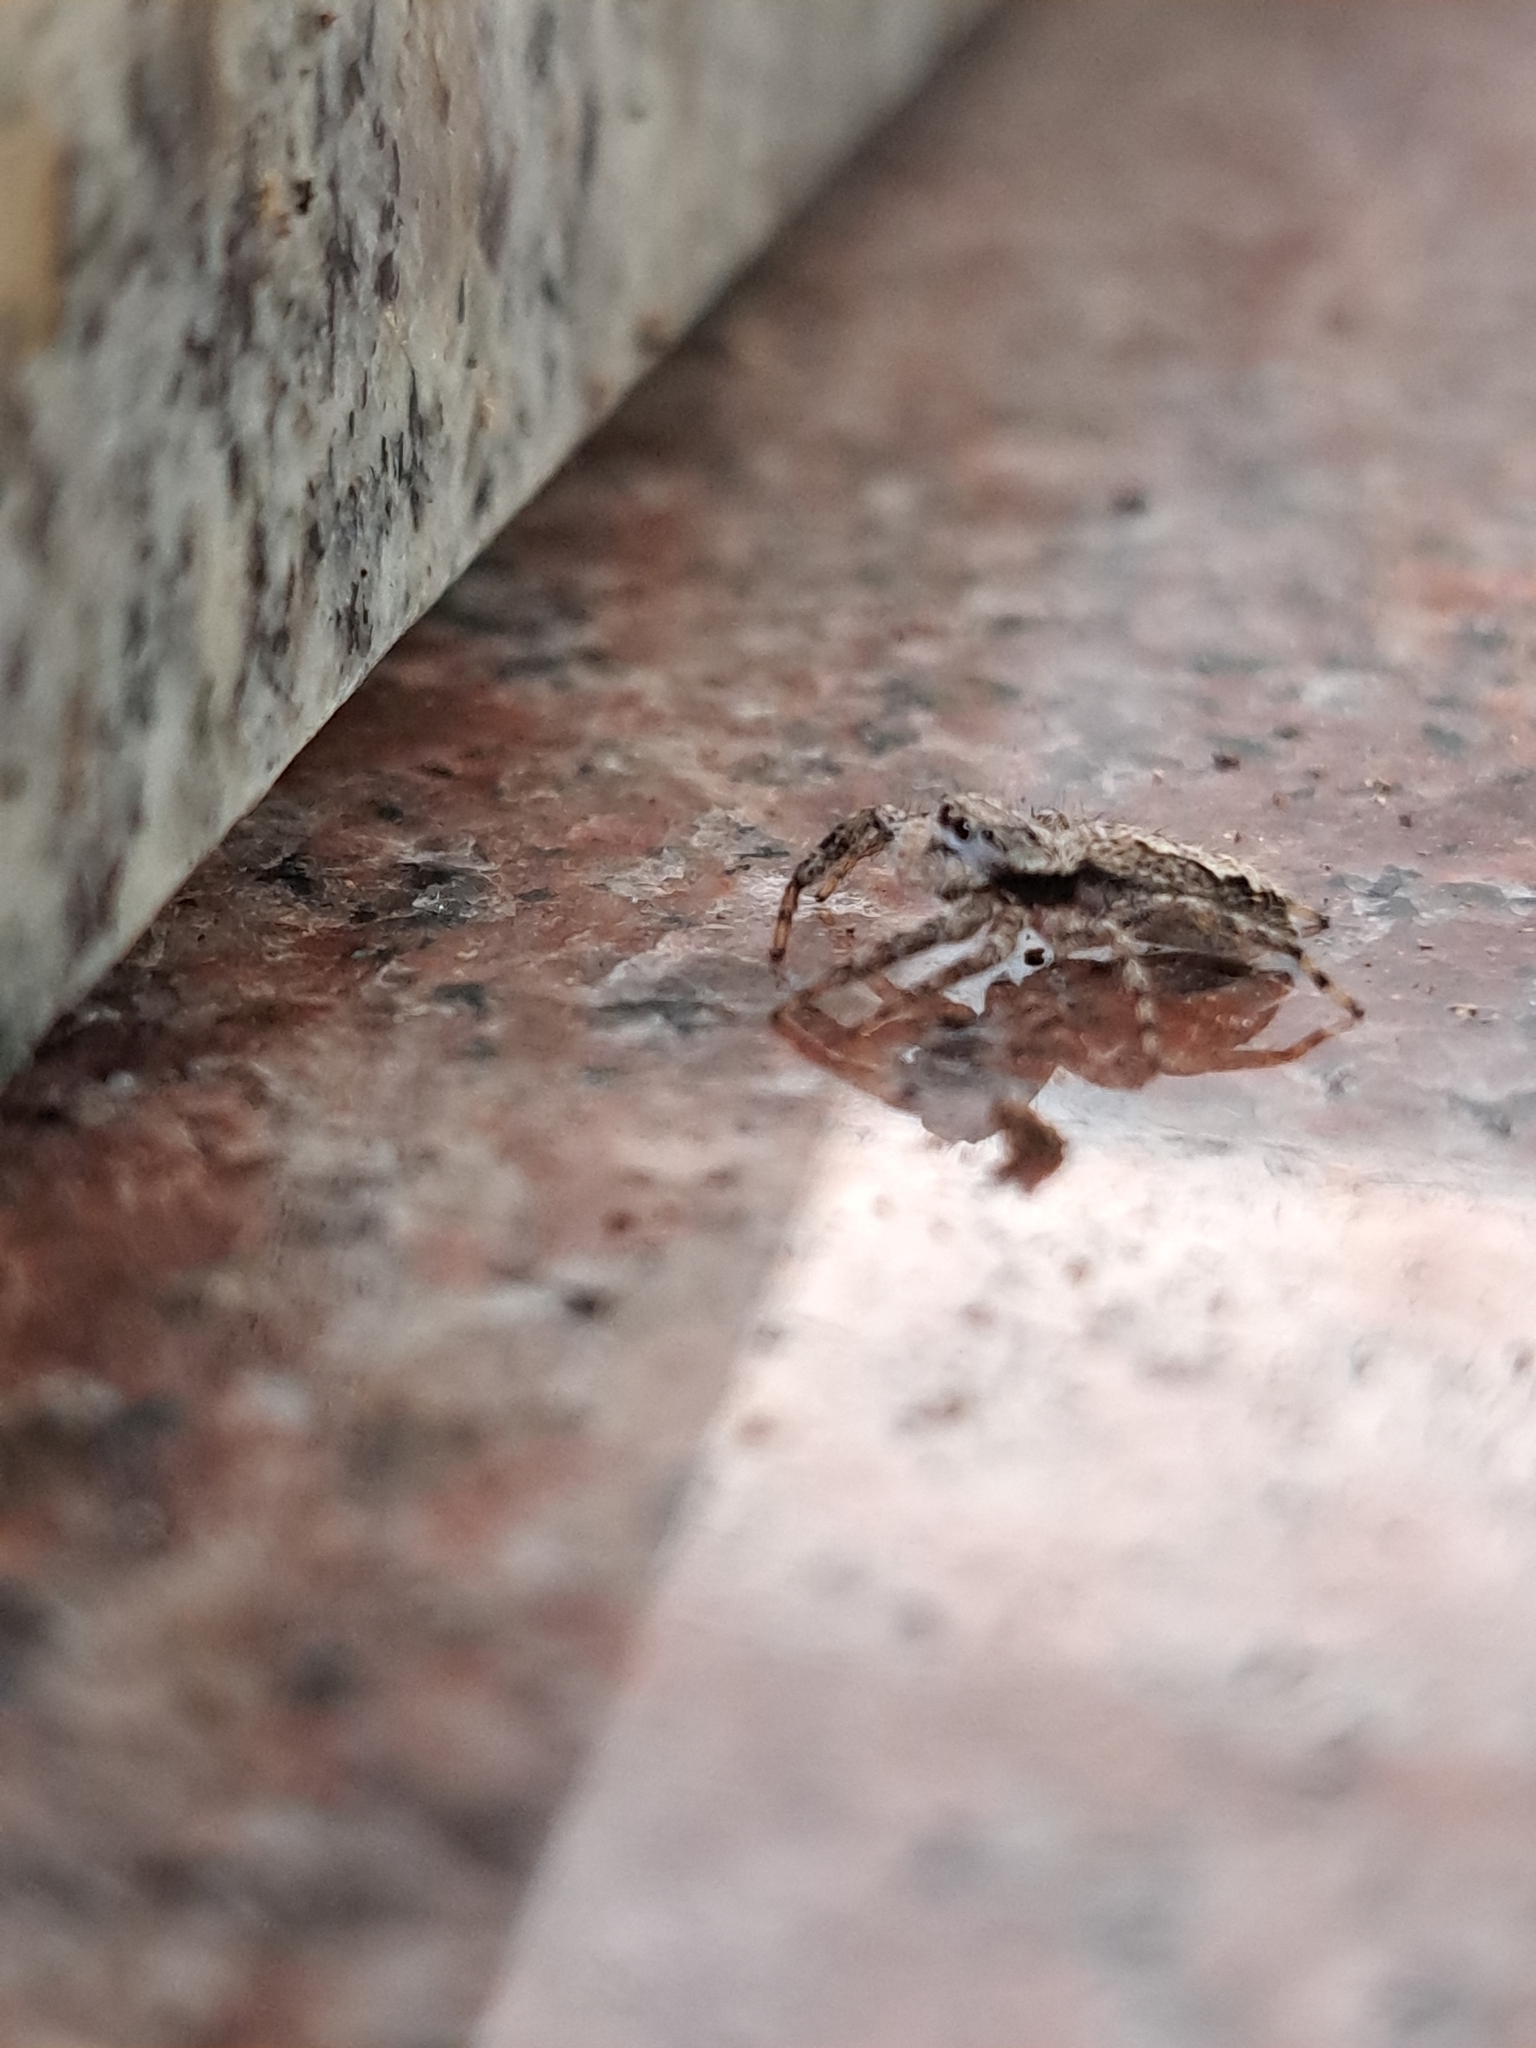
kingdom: Animalia
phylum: Arthropoda
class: Arachnida
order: Araneae
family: Salticidae
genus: Platycryptus
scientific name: Platycryptus undatus
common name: Tan jumping spider
